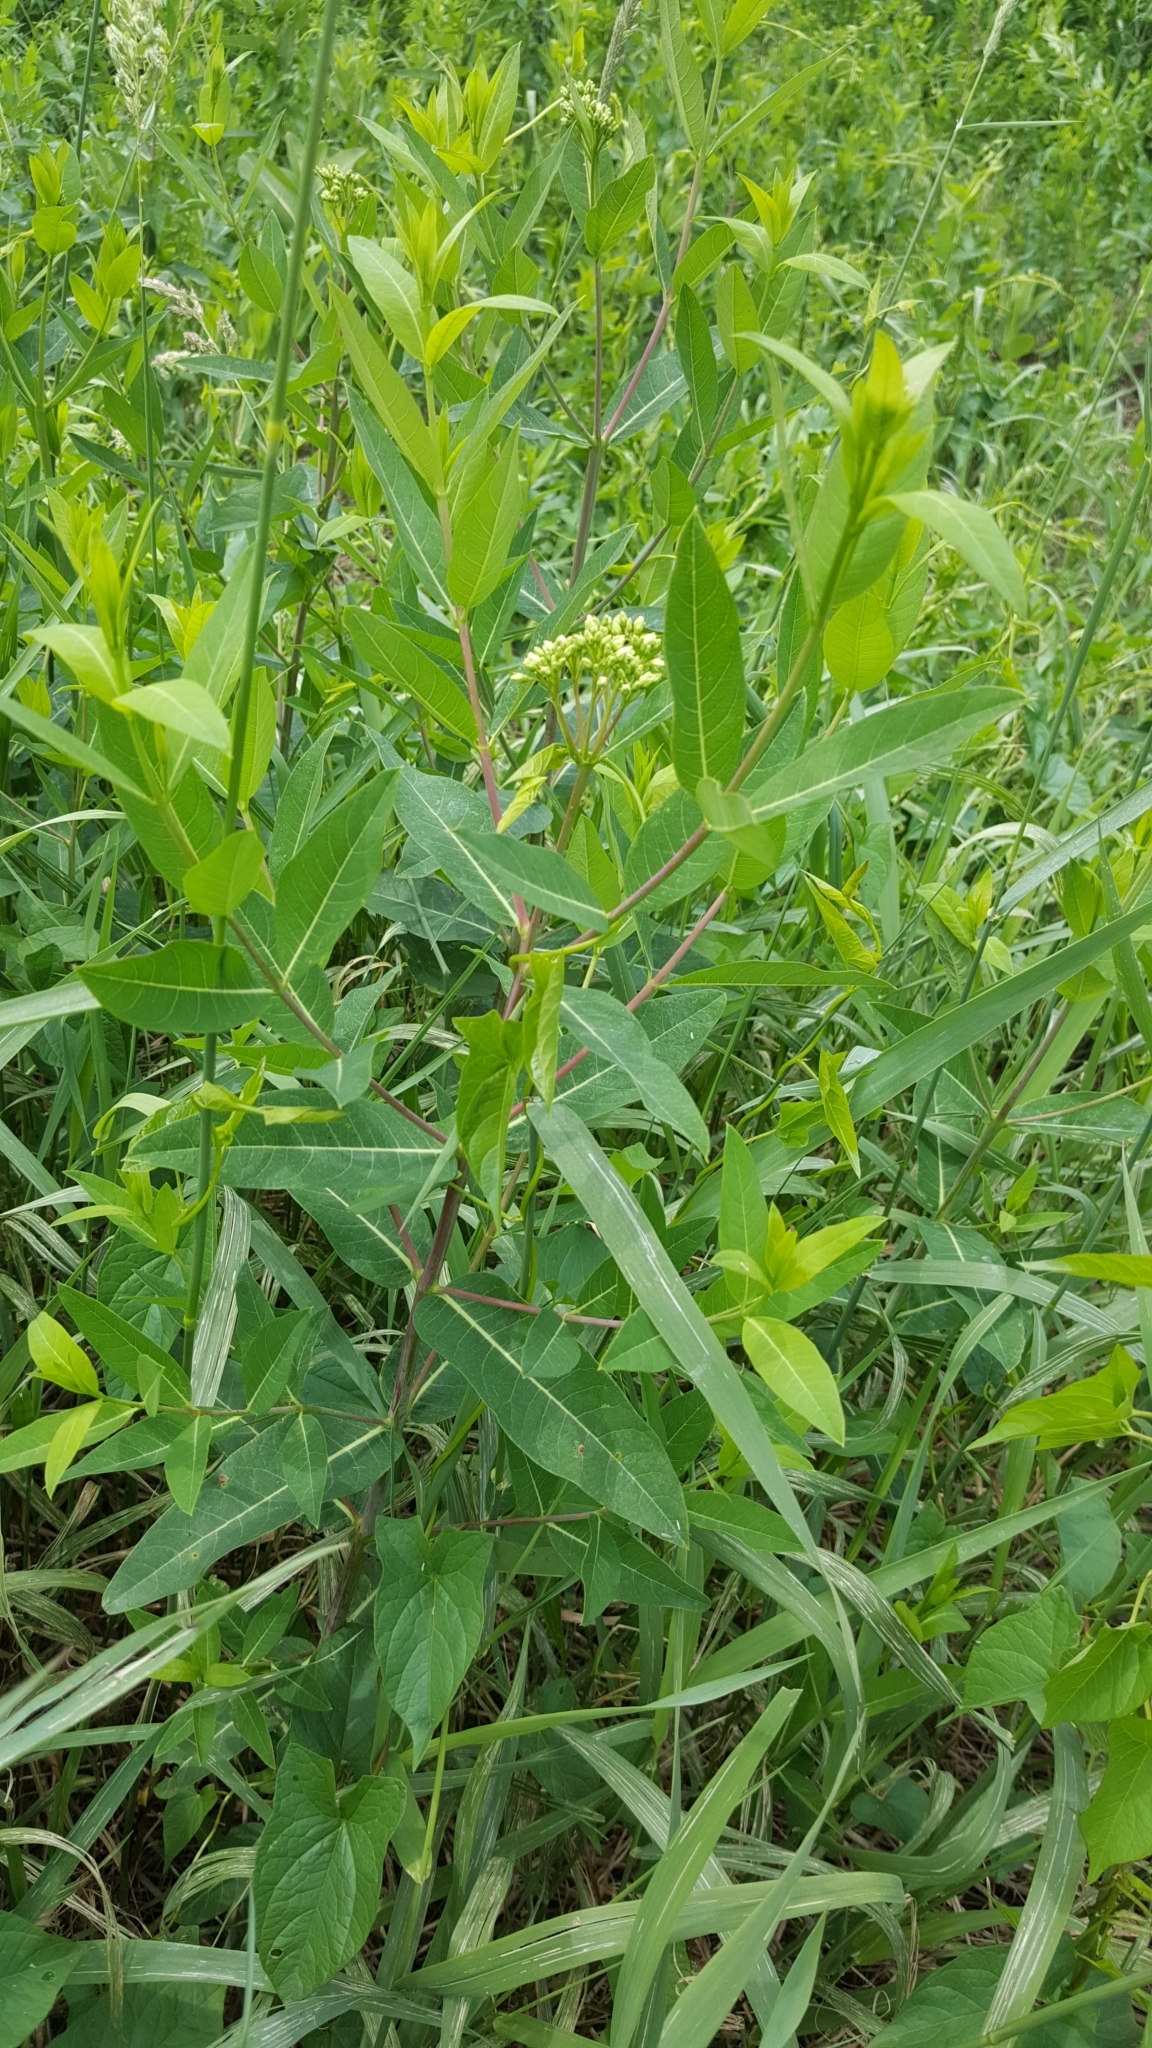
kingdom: Plantae
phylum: Tracheophyta
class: Magnoliopsida
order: Gentianales
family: Apocynaceae
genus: Apocynum
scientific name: Apocynum cannabinum
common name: Hemp dogbane
